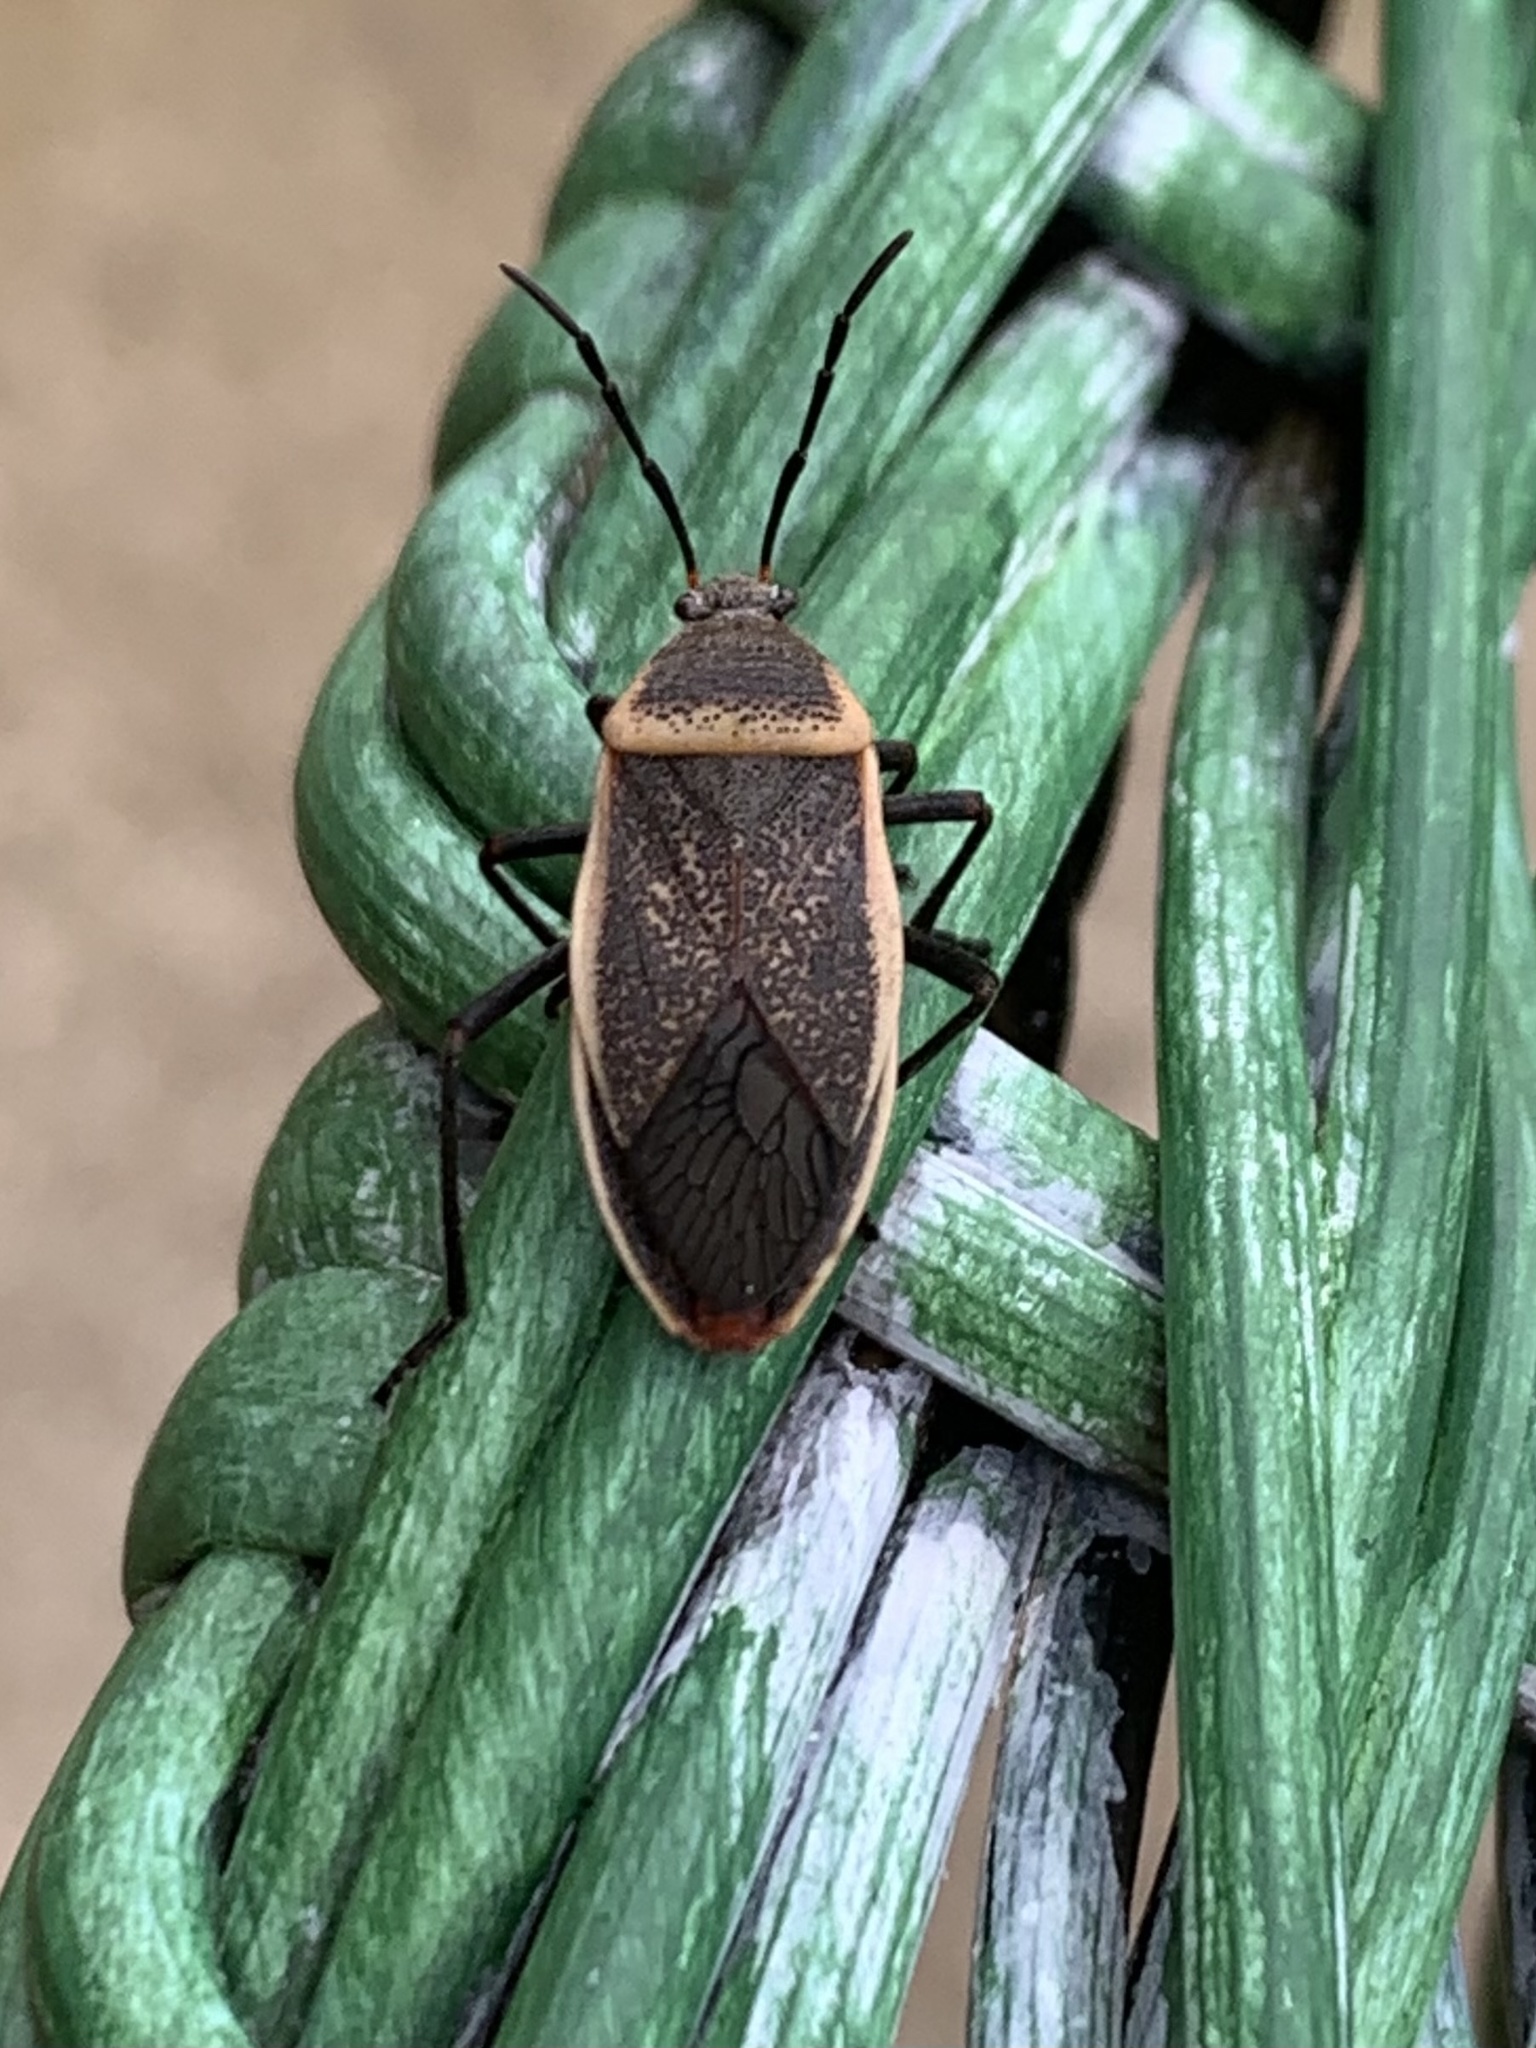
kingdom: Animalia
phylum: Arthropoda
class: Insecta
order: Hemiptera
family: Largidae
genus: Largus
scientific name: Largus californicus
